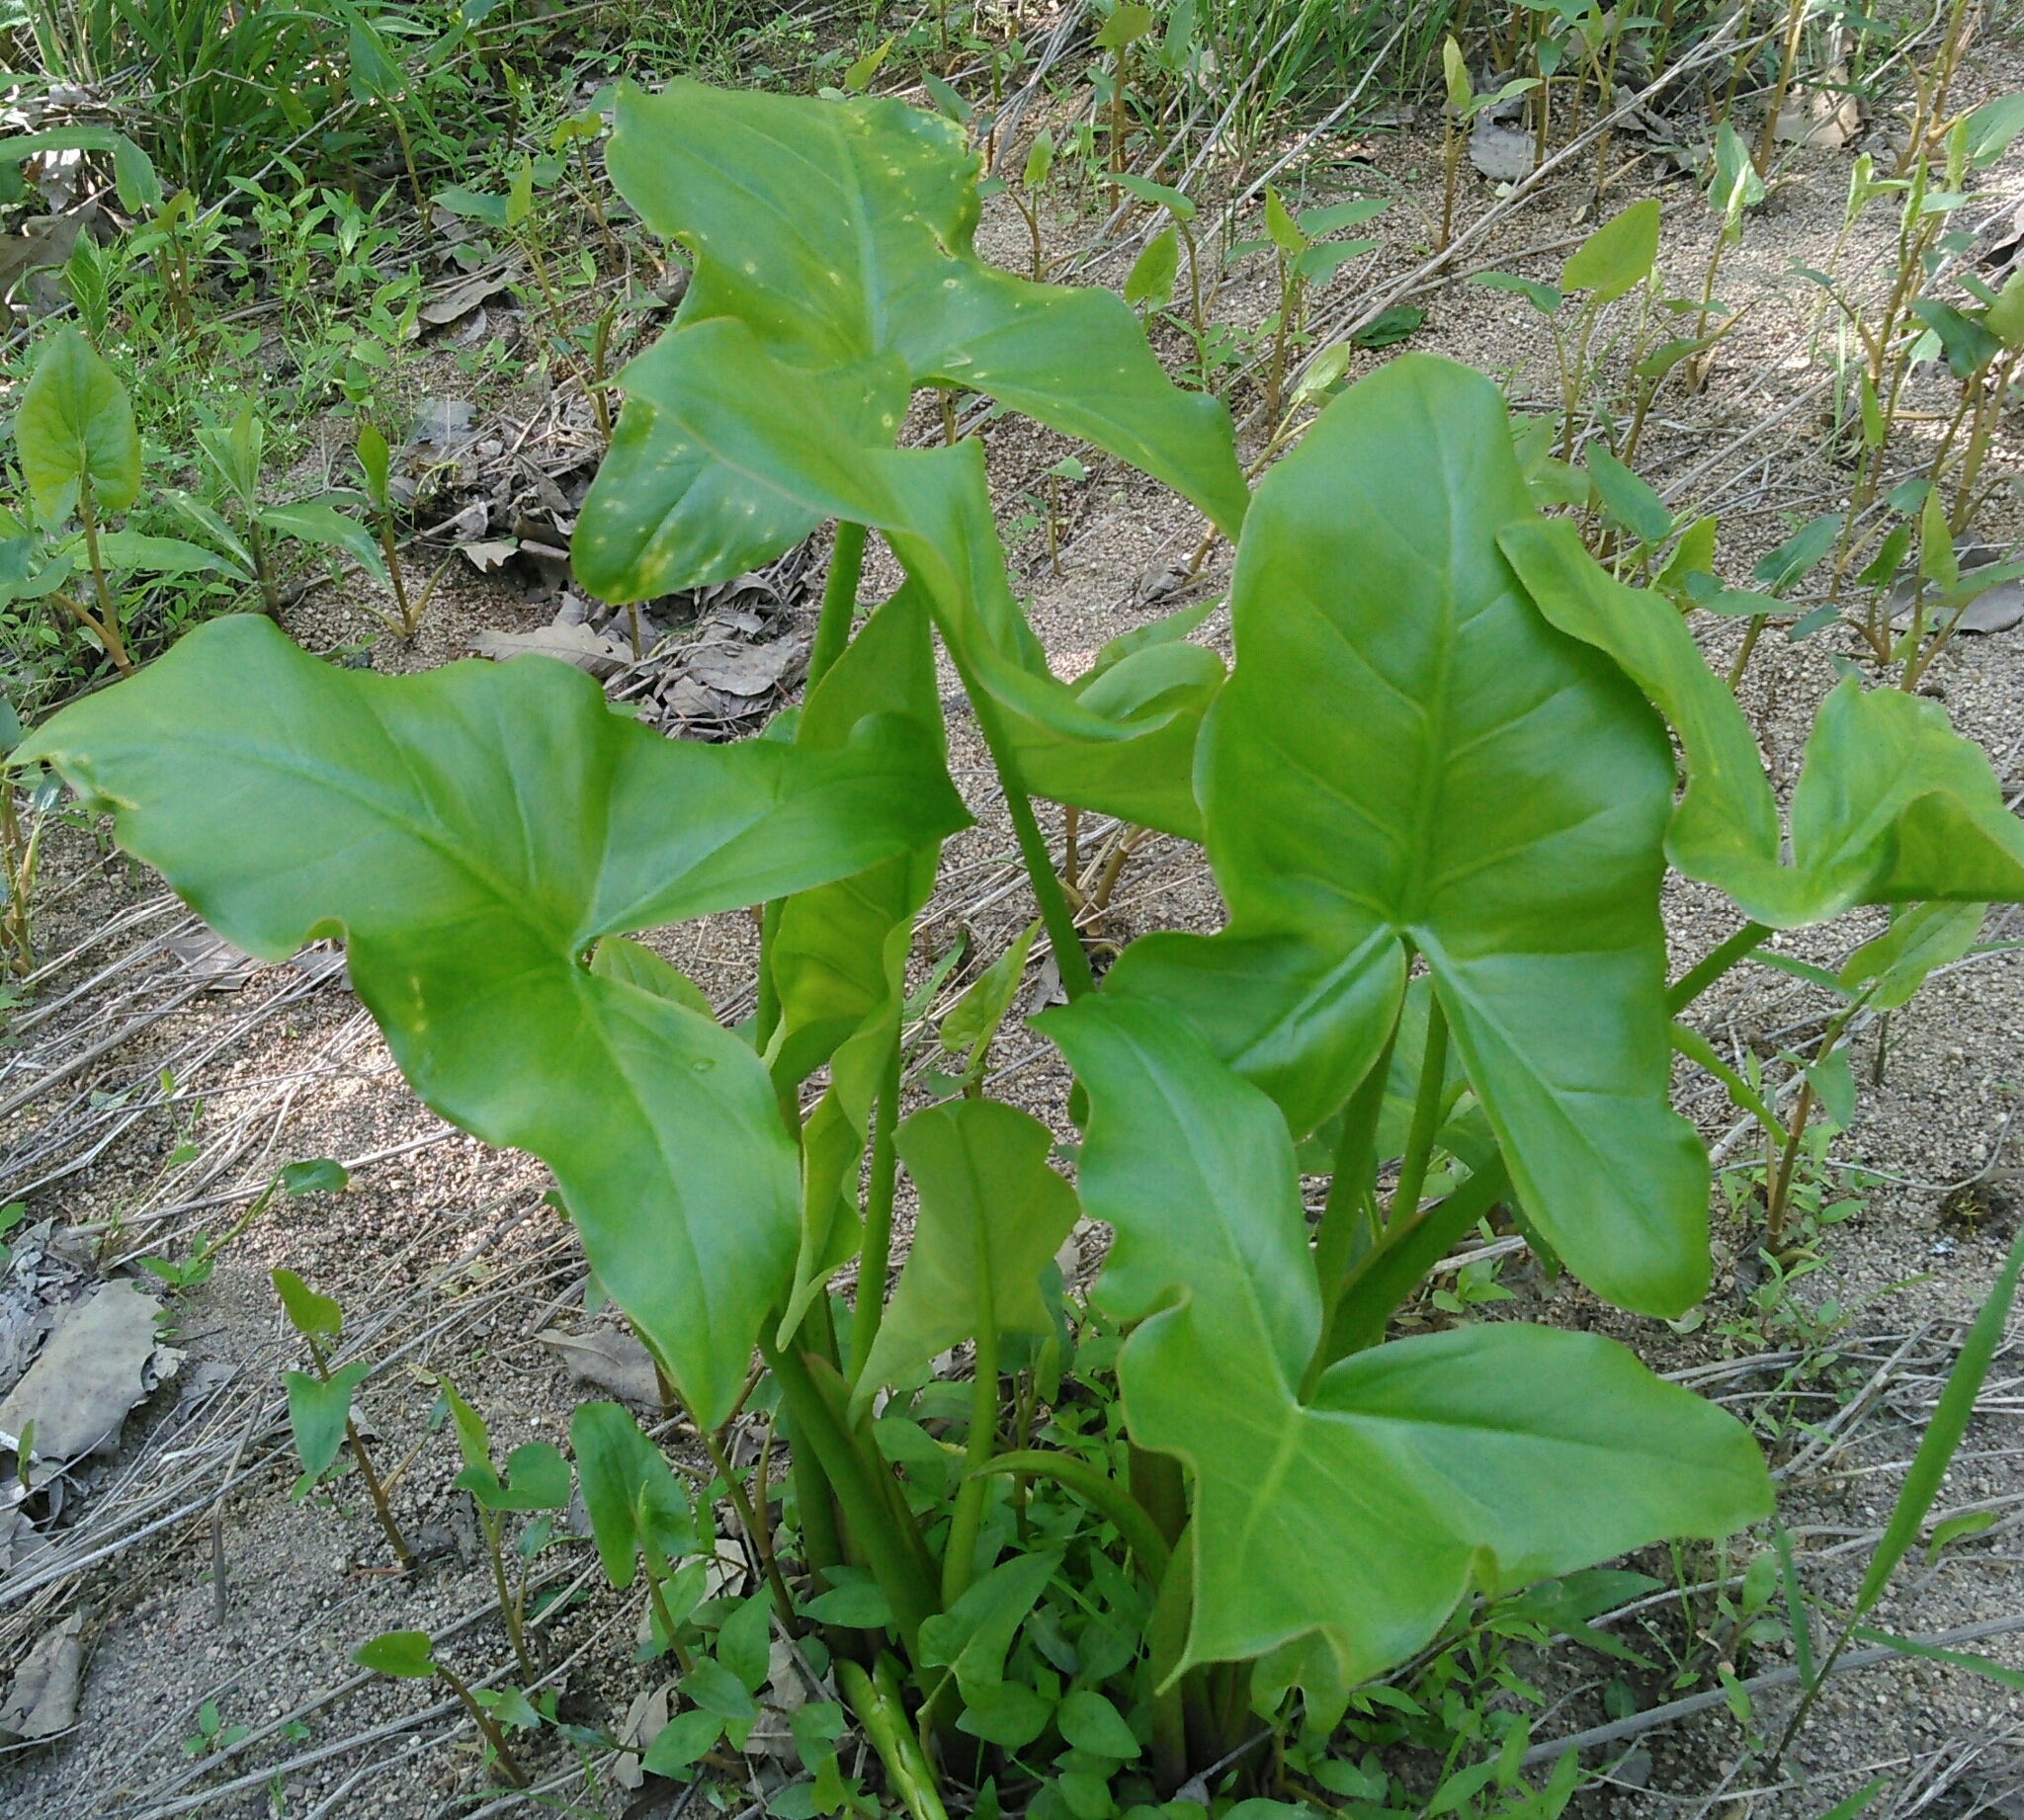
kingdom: Plantae
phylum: Tracheophyta
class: Liliopsida
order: Alismatales
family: Araceae
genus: Peltandra
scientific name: Peltandra virginica
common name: Arrow arum
